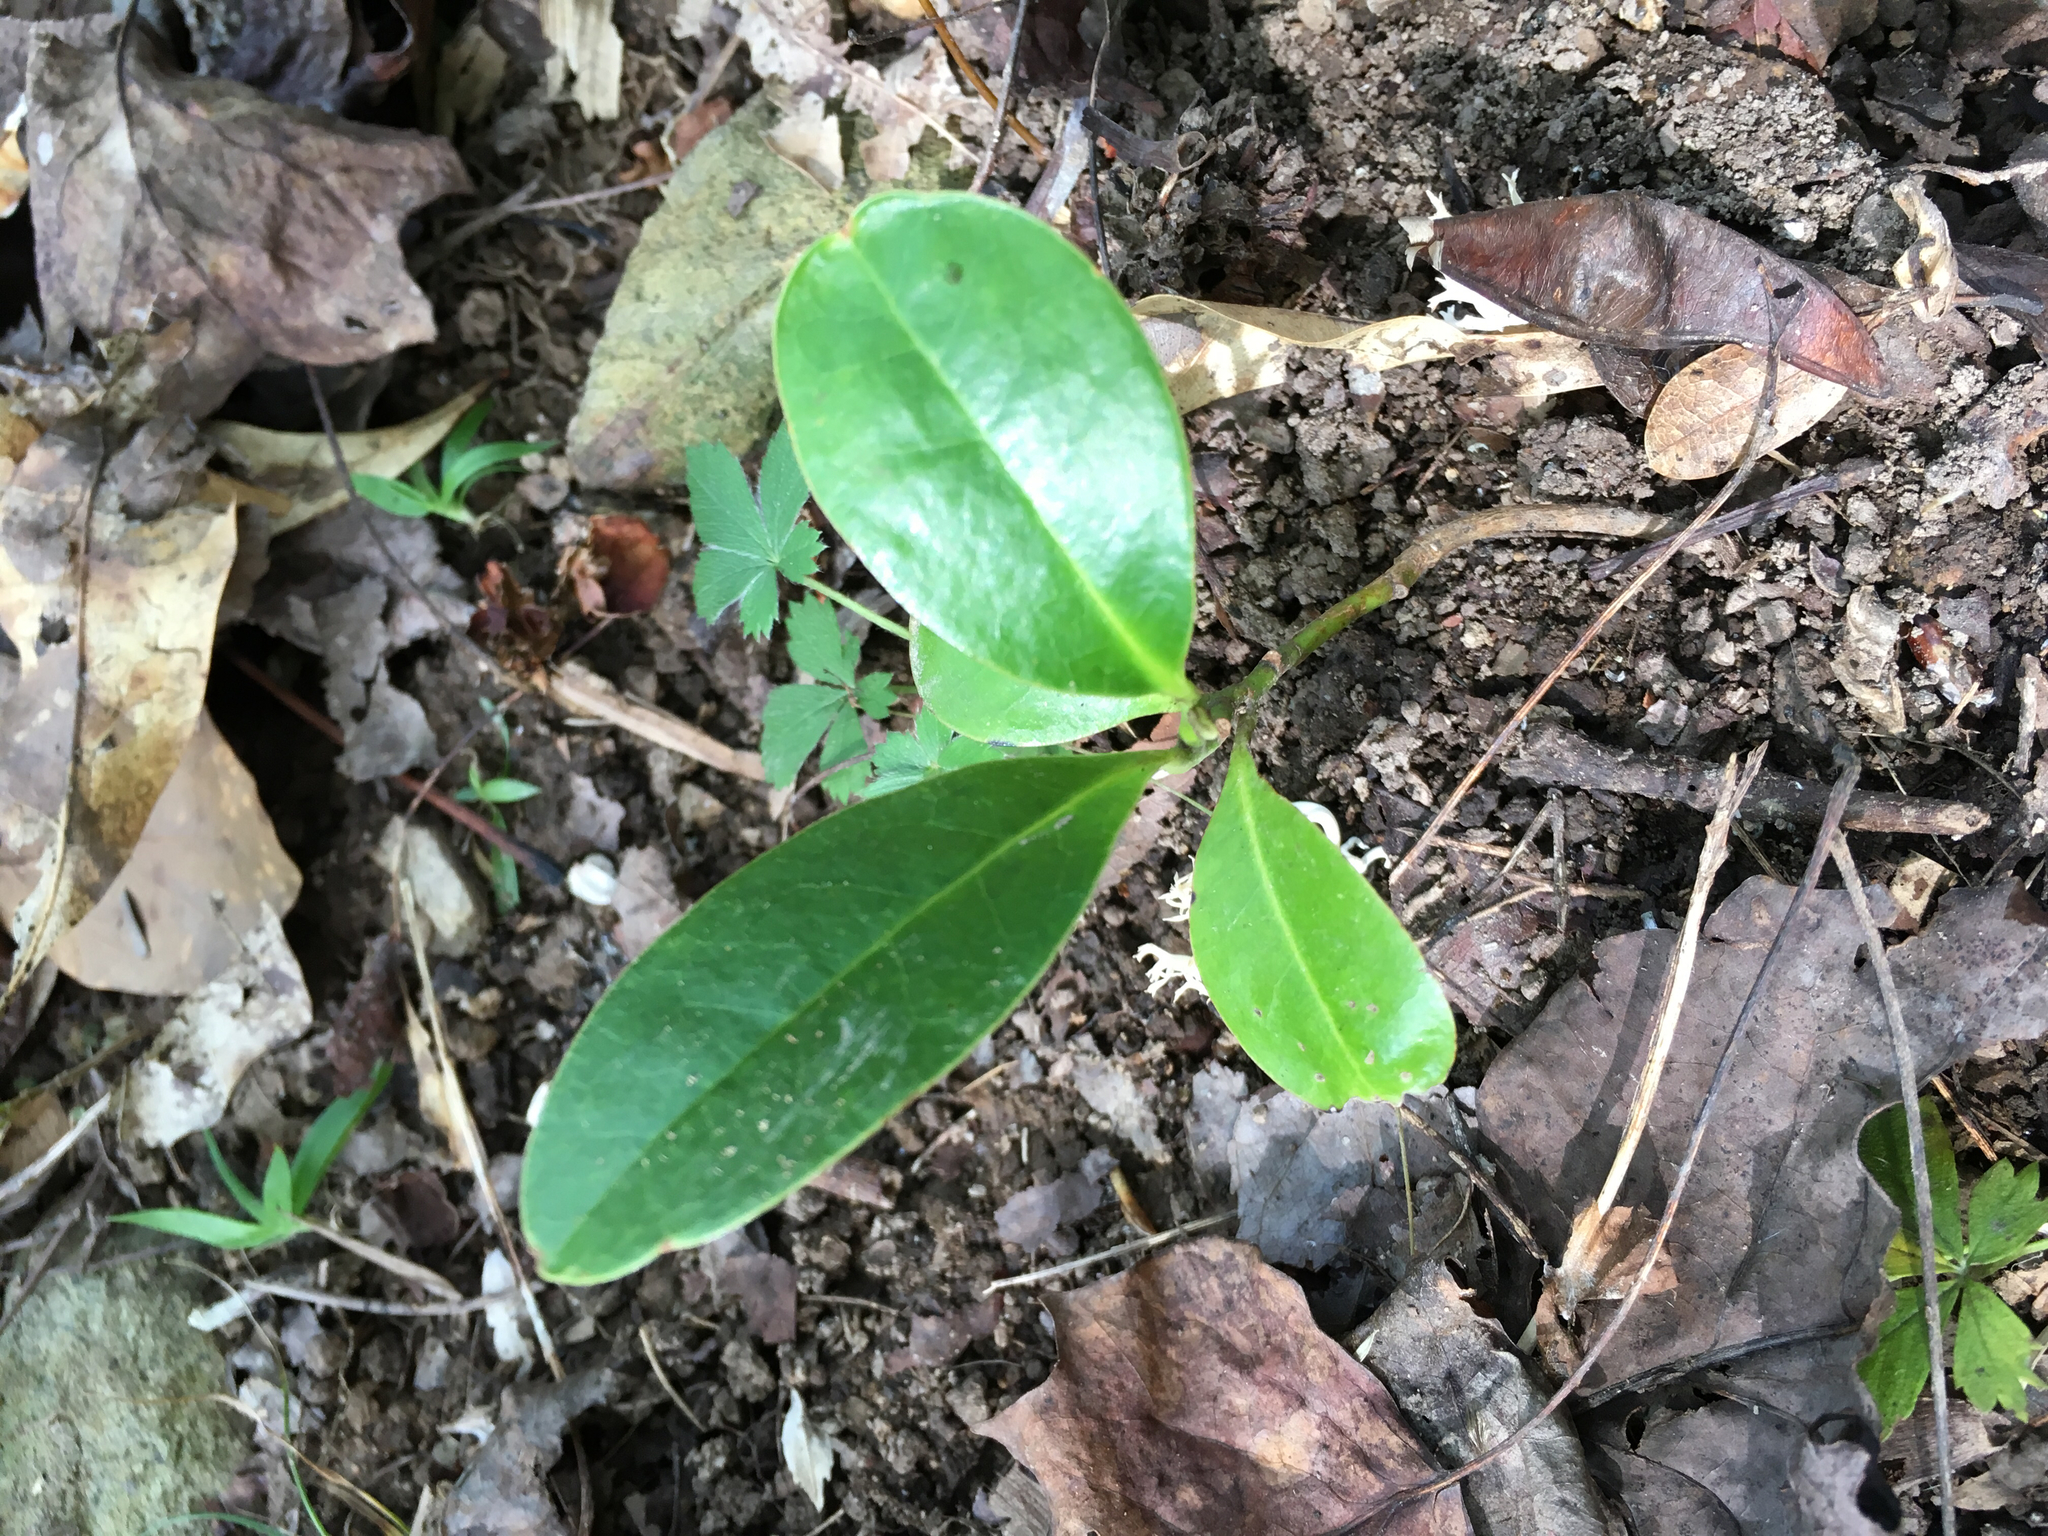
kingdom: Plantae
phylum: Tracheophyta
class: Magnoliopsida
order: Magnoliales
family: Magnoliaceae
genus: Magnolia
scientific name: Magnolia grandiflora
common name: Southern magnolia
